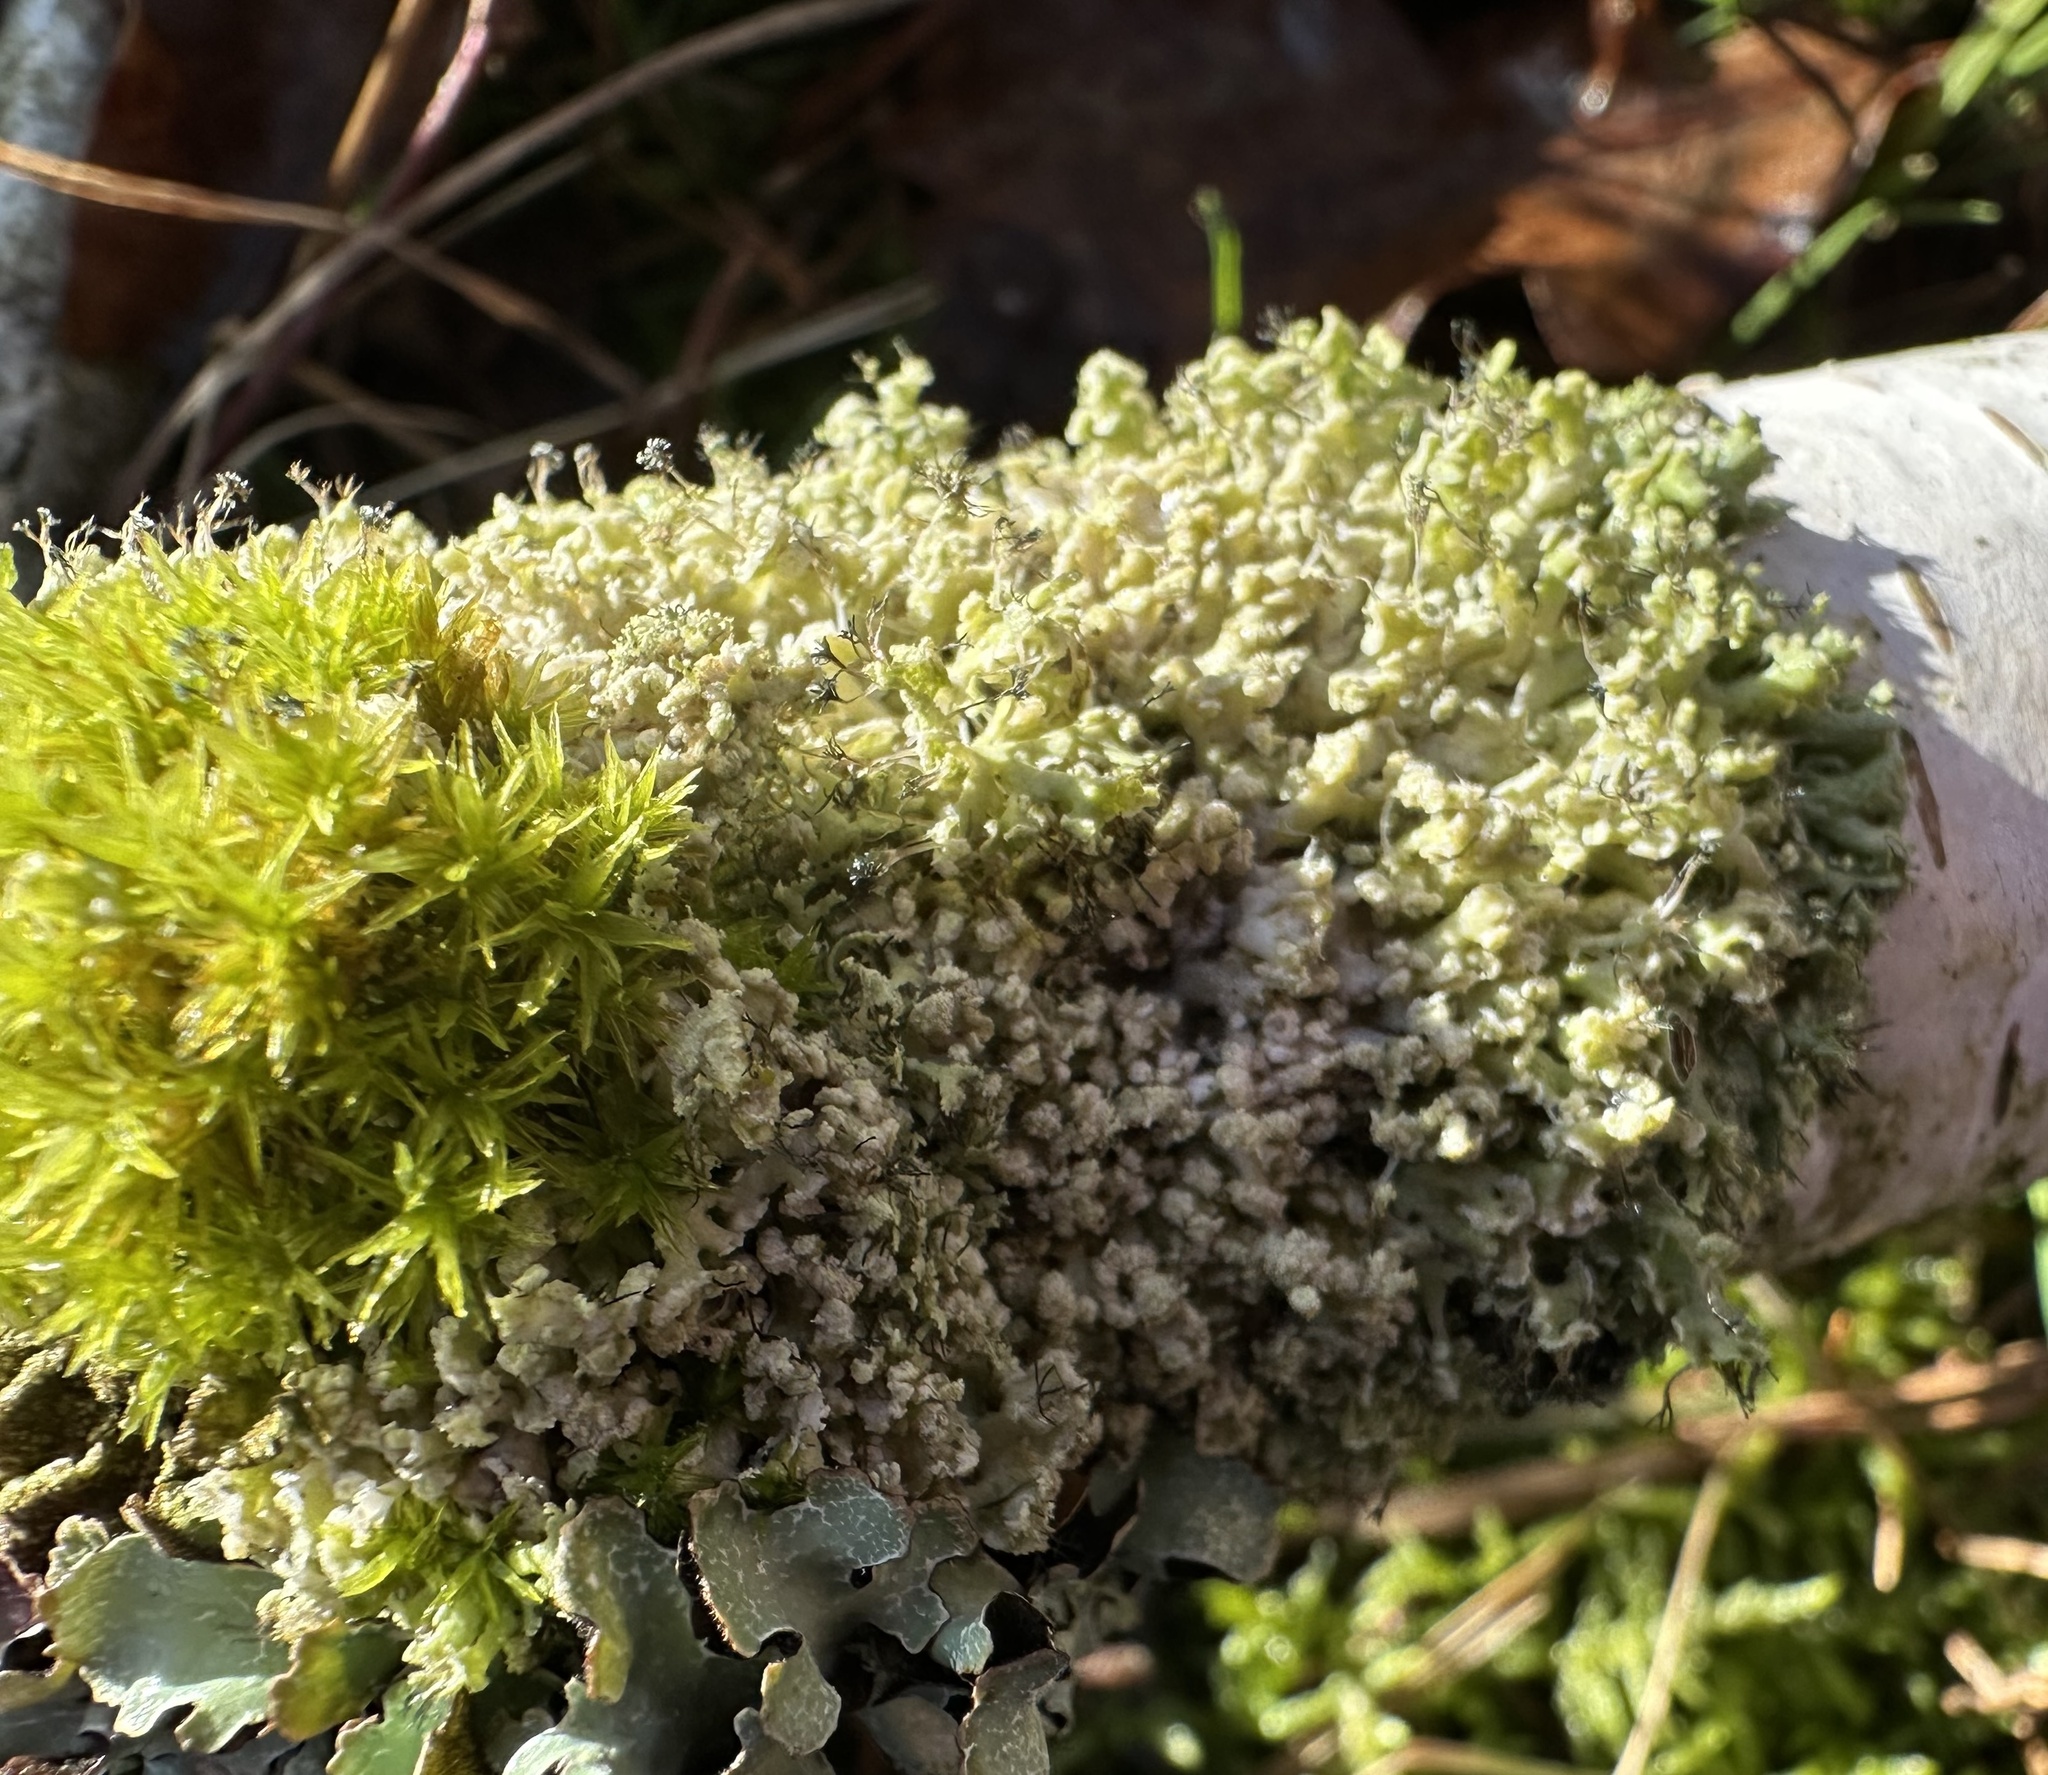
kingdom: Fungi
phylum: Ascomycota
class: Lecanoromycetes
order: Caliciales
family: Physciaceae
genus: Physcia
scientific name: Physcia adscendens
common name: Hooded rosette lichen
